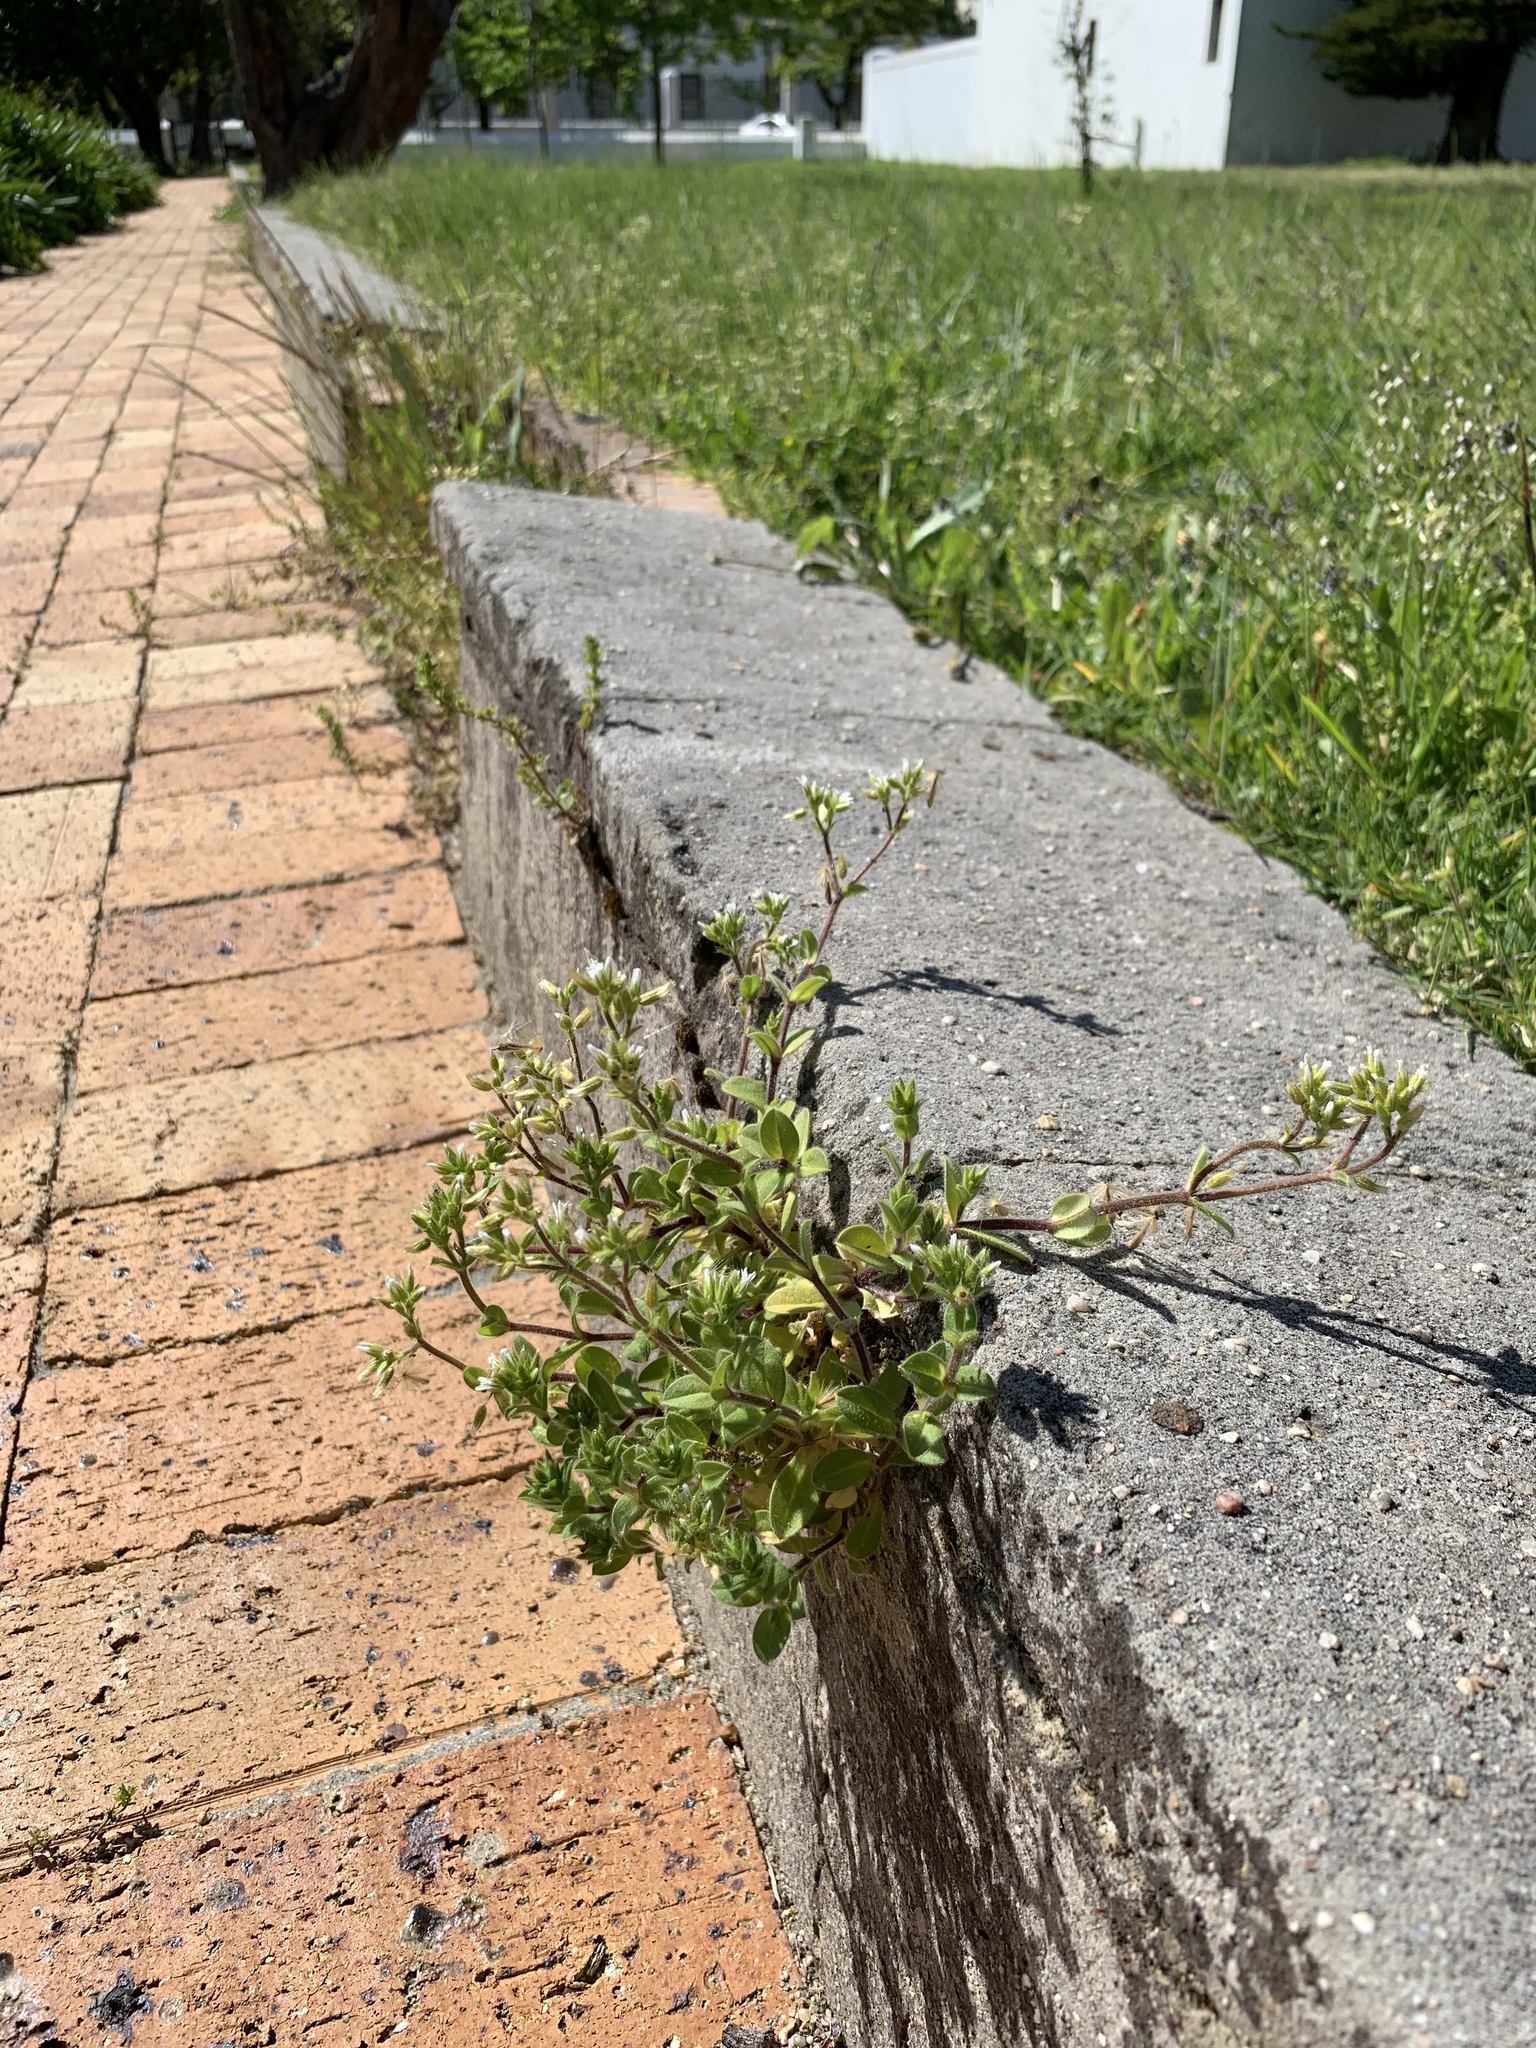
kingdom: Plantae
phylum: Tracheophyta
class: Magnoliopsida
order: Caryophyllales
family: Caryophyllaceae
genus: Cerastium
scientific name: Cerastium glomeratum
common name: Sticky chickweed
